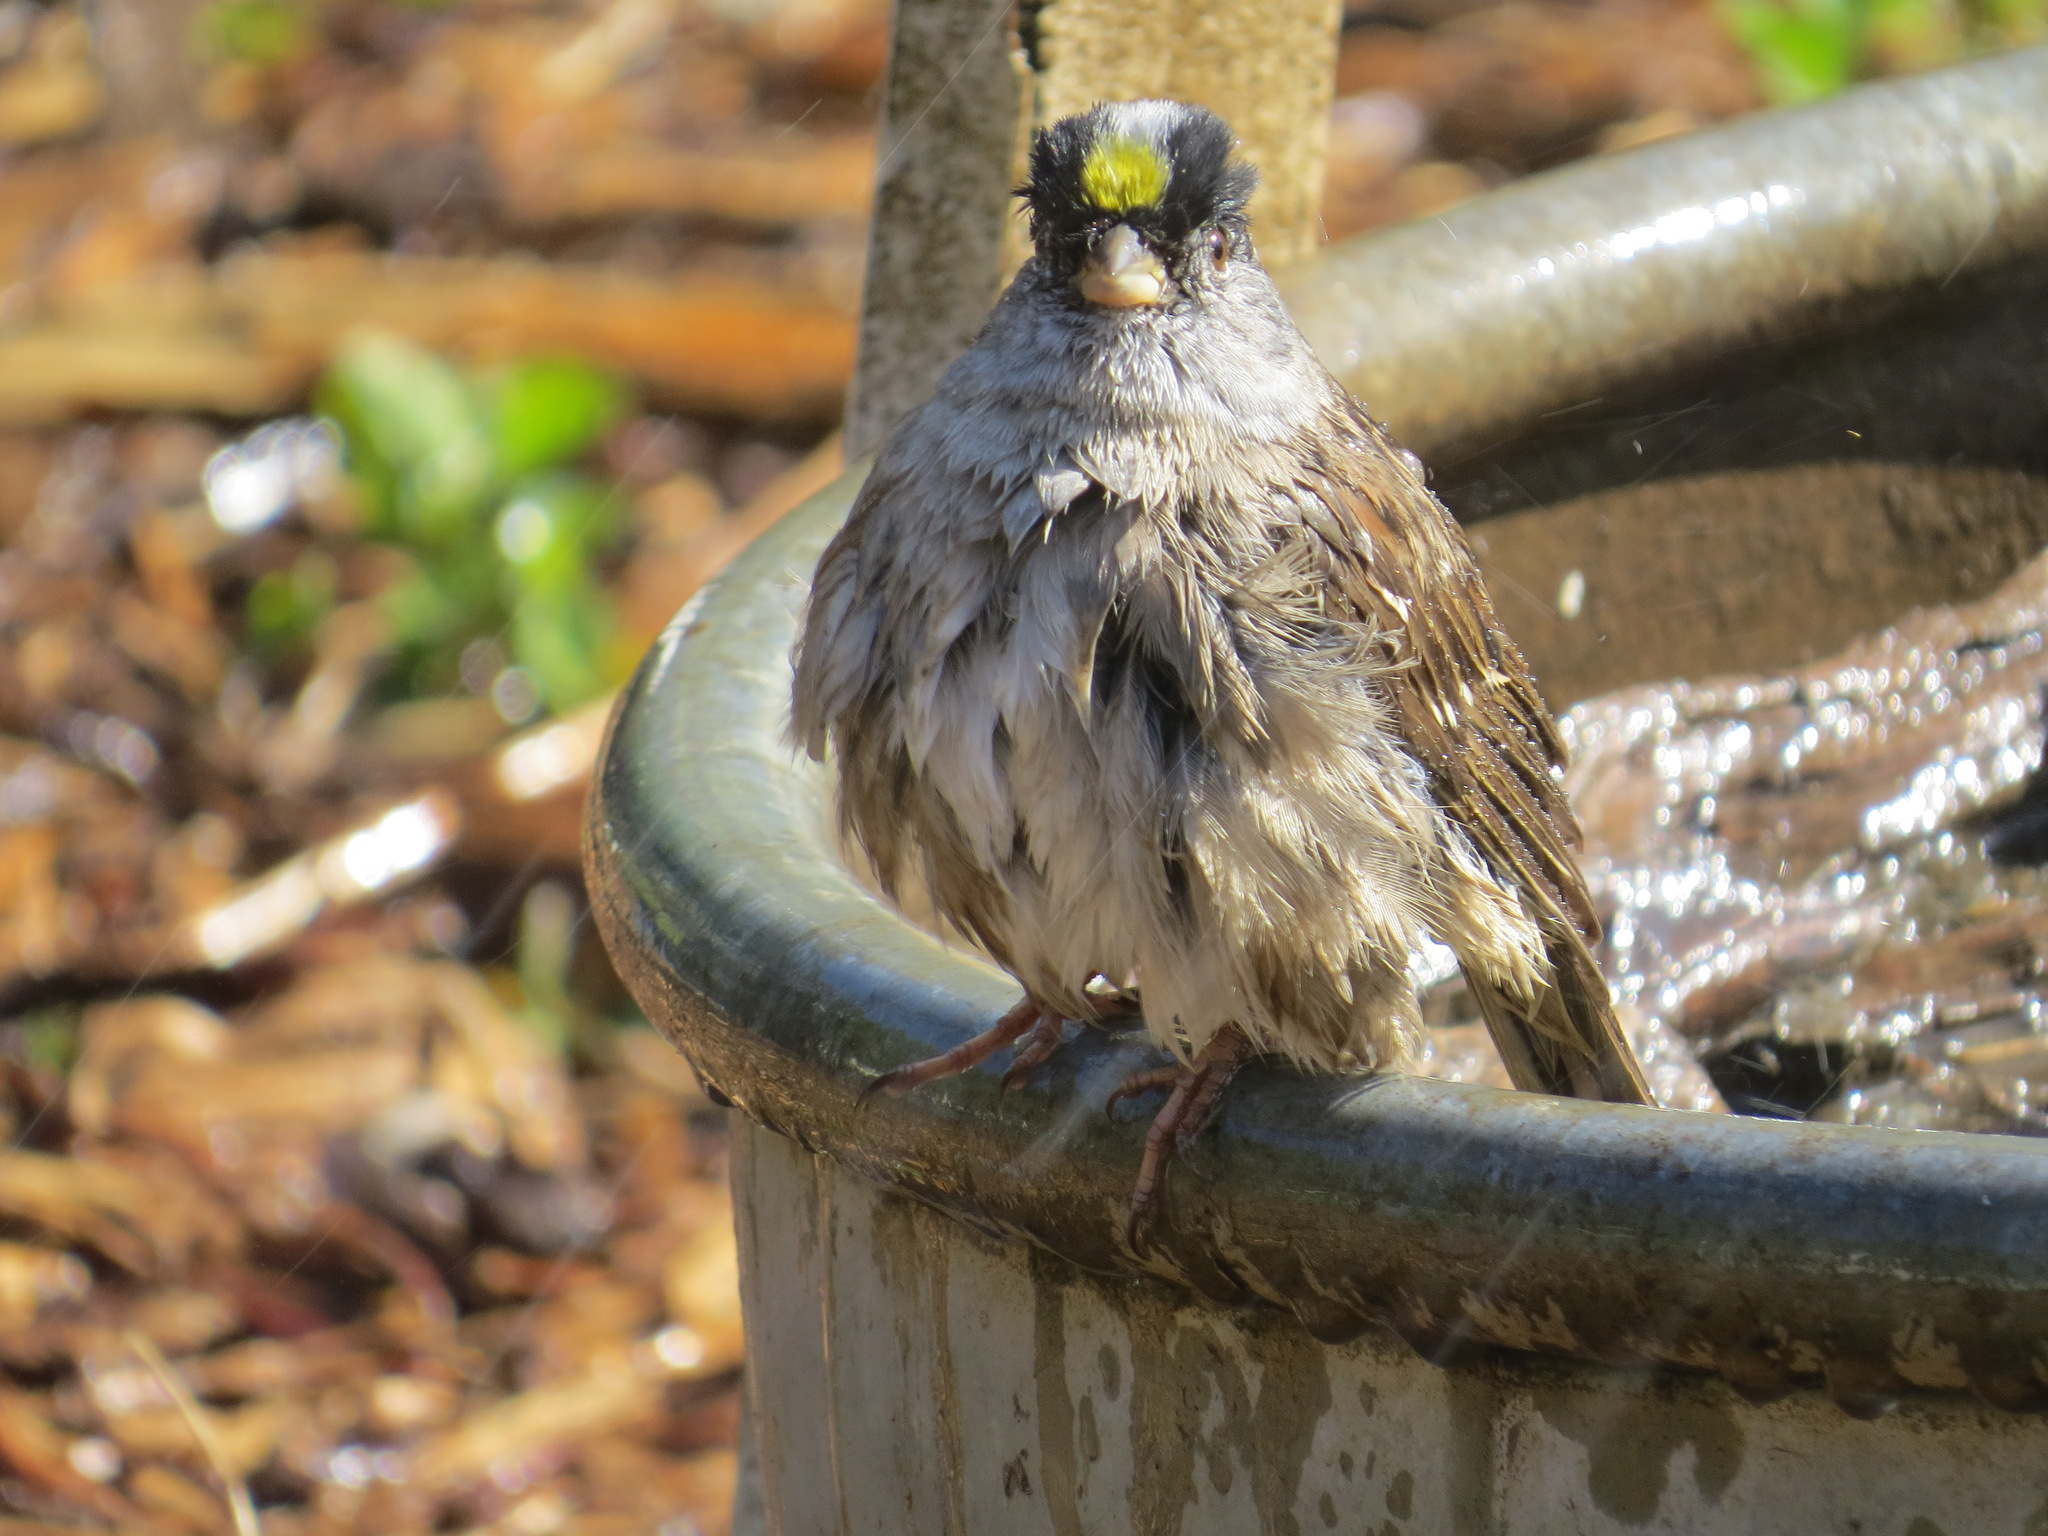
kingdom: Animalia
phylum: Chordata
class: Aves
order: Passeriformes
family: Passerellidae
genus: Zonotrichia
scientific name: Zonotrichia atricapilla
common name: Golden-crowned sparrow
